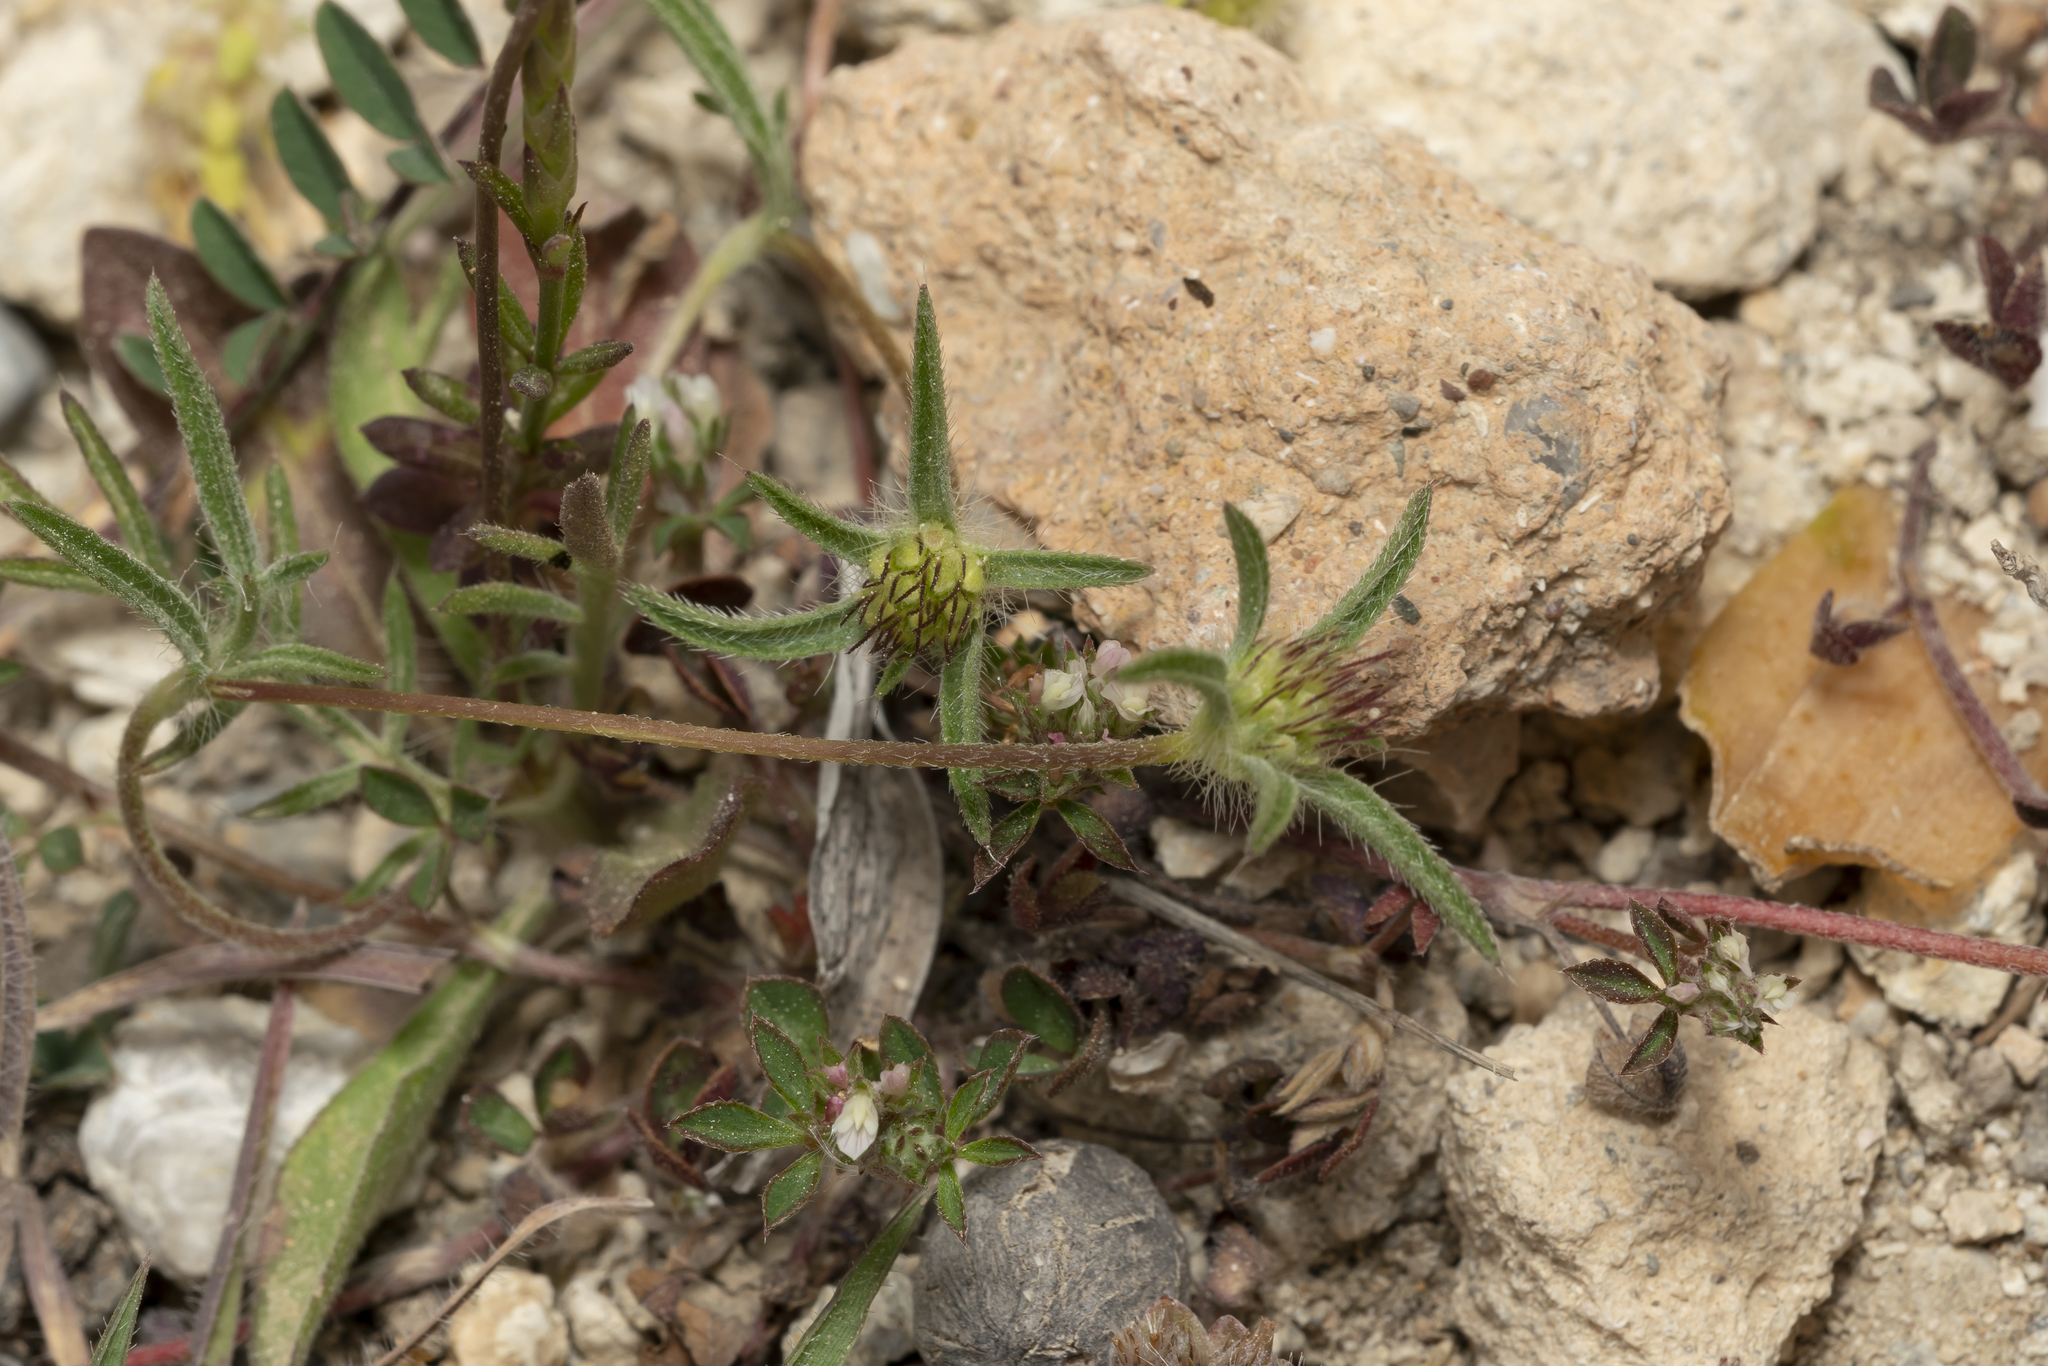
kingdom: Plantae
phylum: Tracheophyta
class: Magnoliopsida
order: Dipsacales
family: Caprifoliaceae
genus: Lomelosia
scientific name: Lomelosia divaricata
